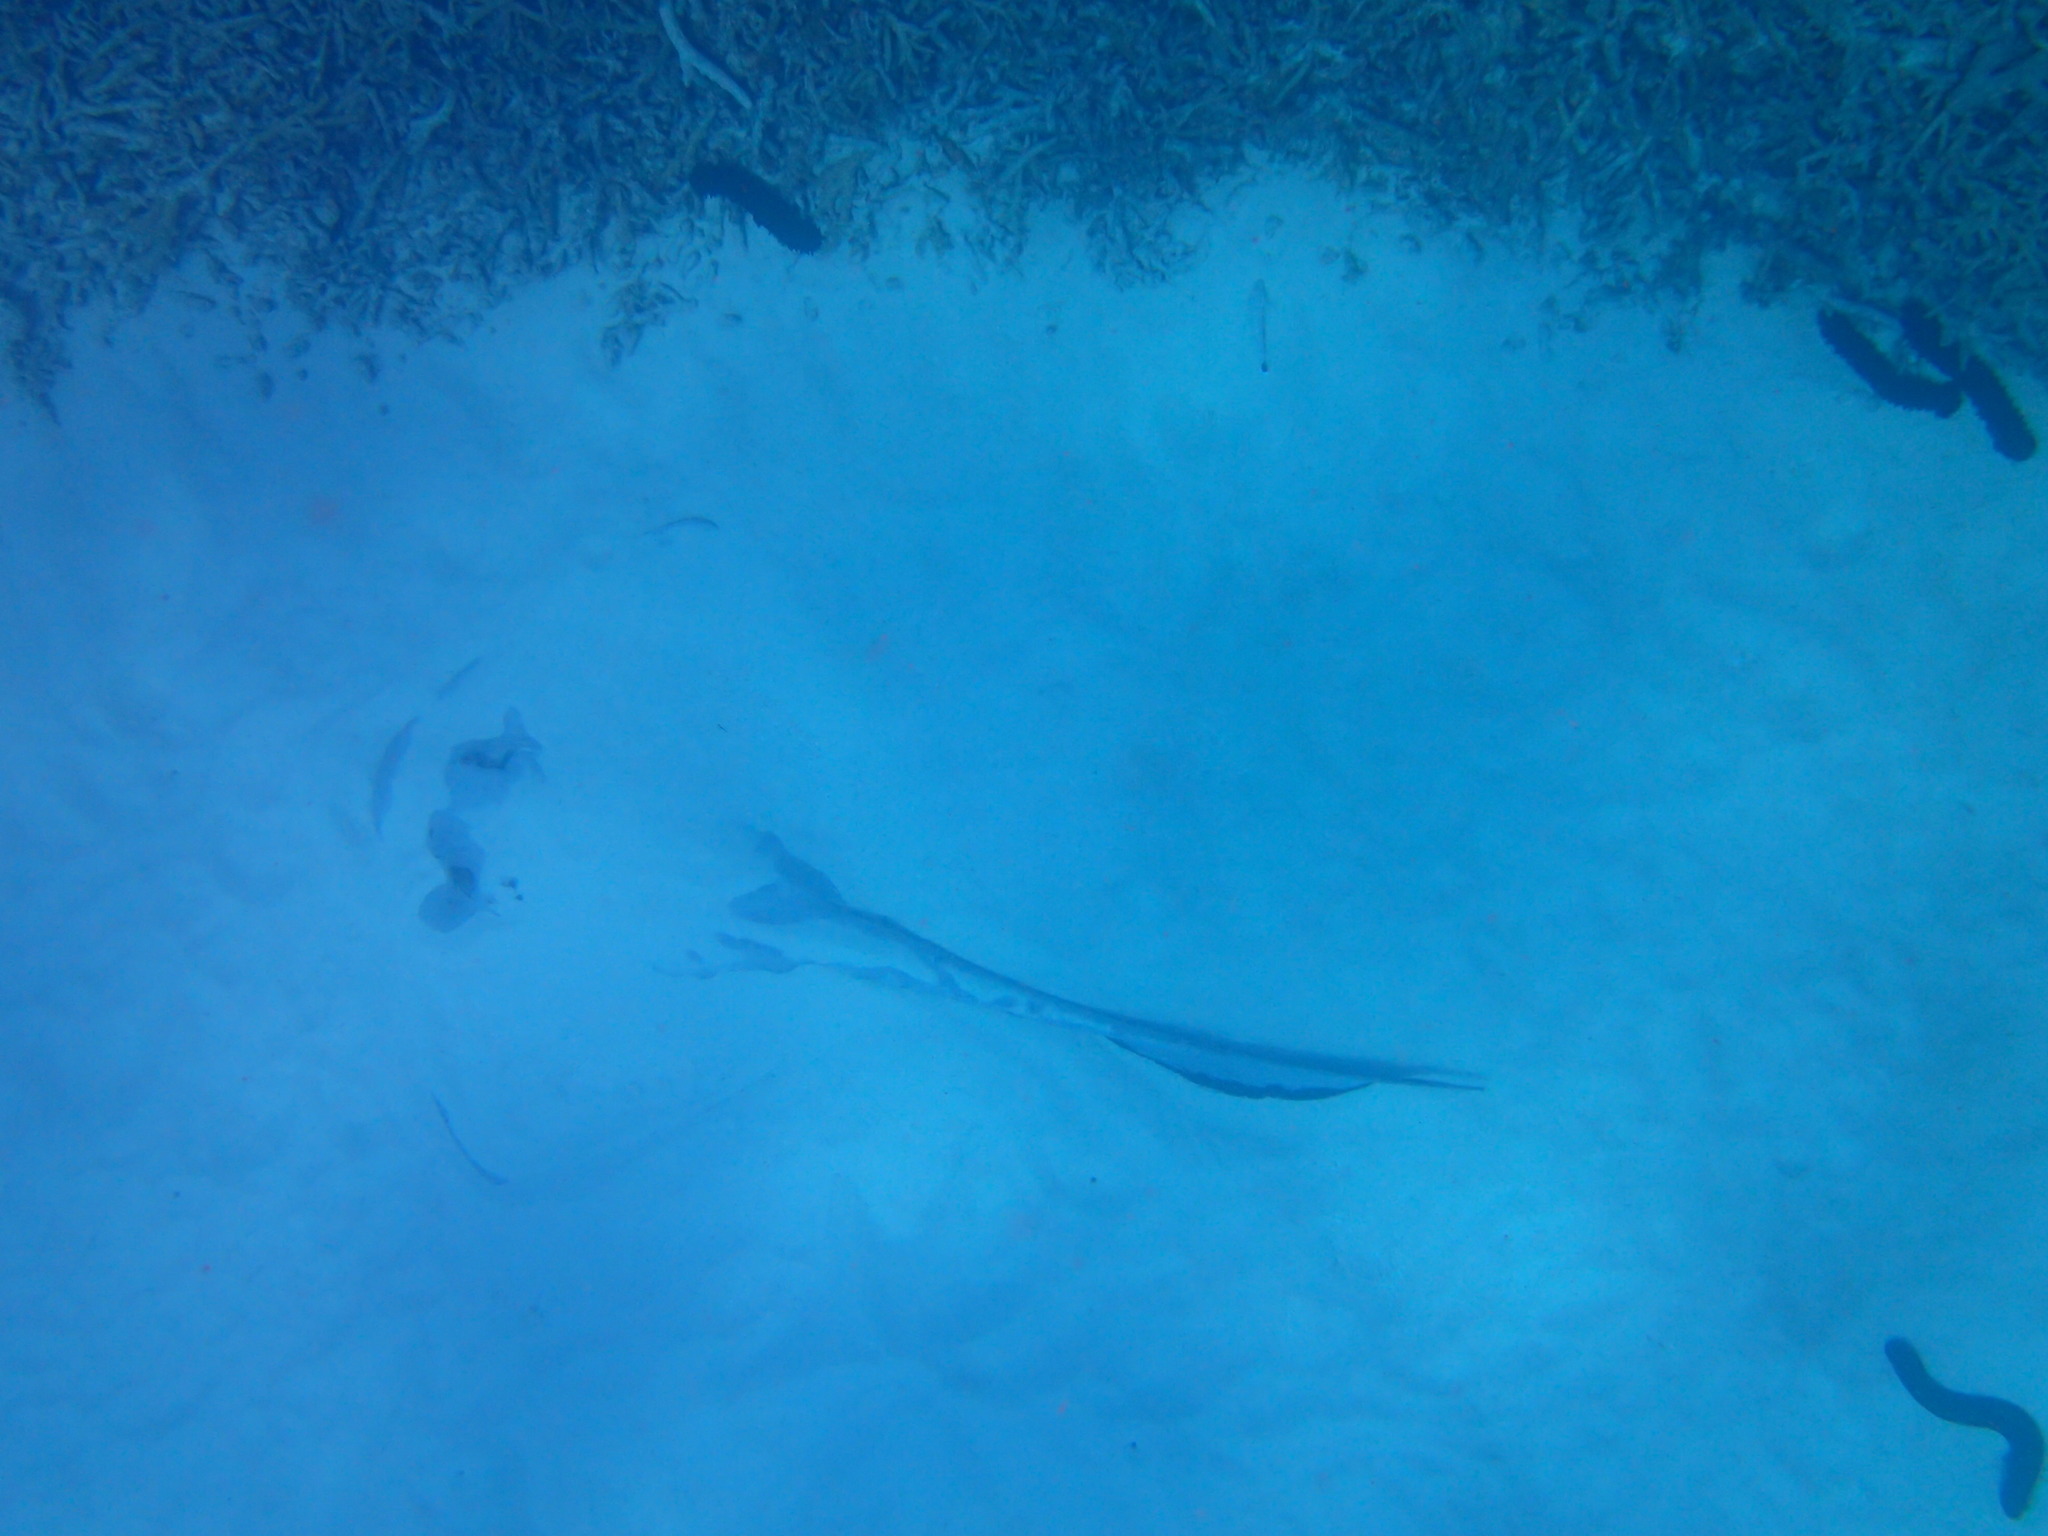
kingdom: Animalia
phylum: Chordata
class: Elasmobranchii
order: Myliobatiformes
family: Dasyatidae
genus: Pastinachus
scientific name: Pastinachus ater
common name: Banana-tail ray
